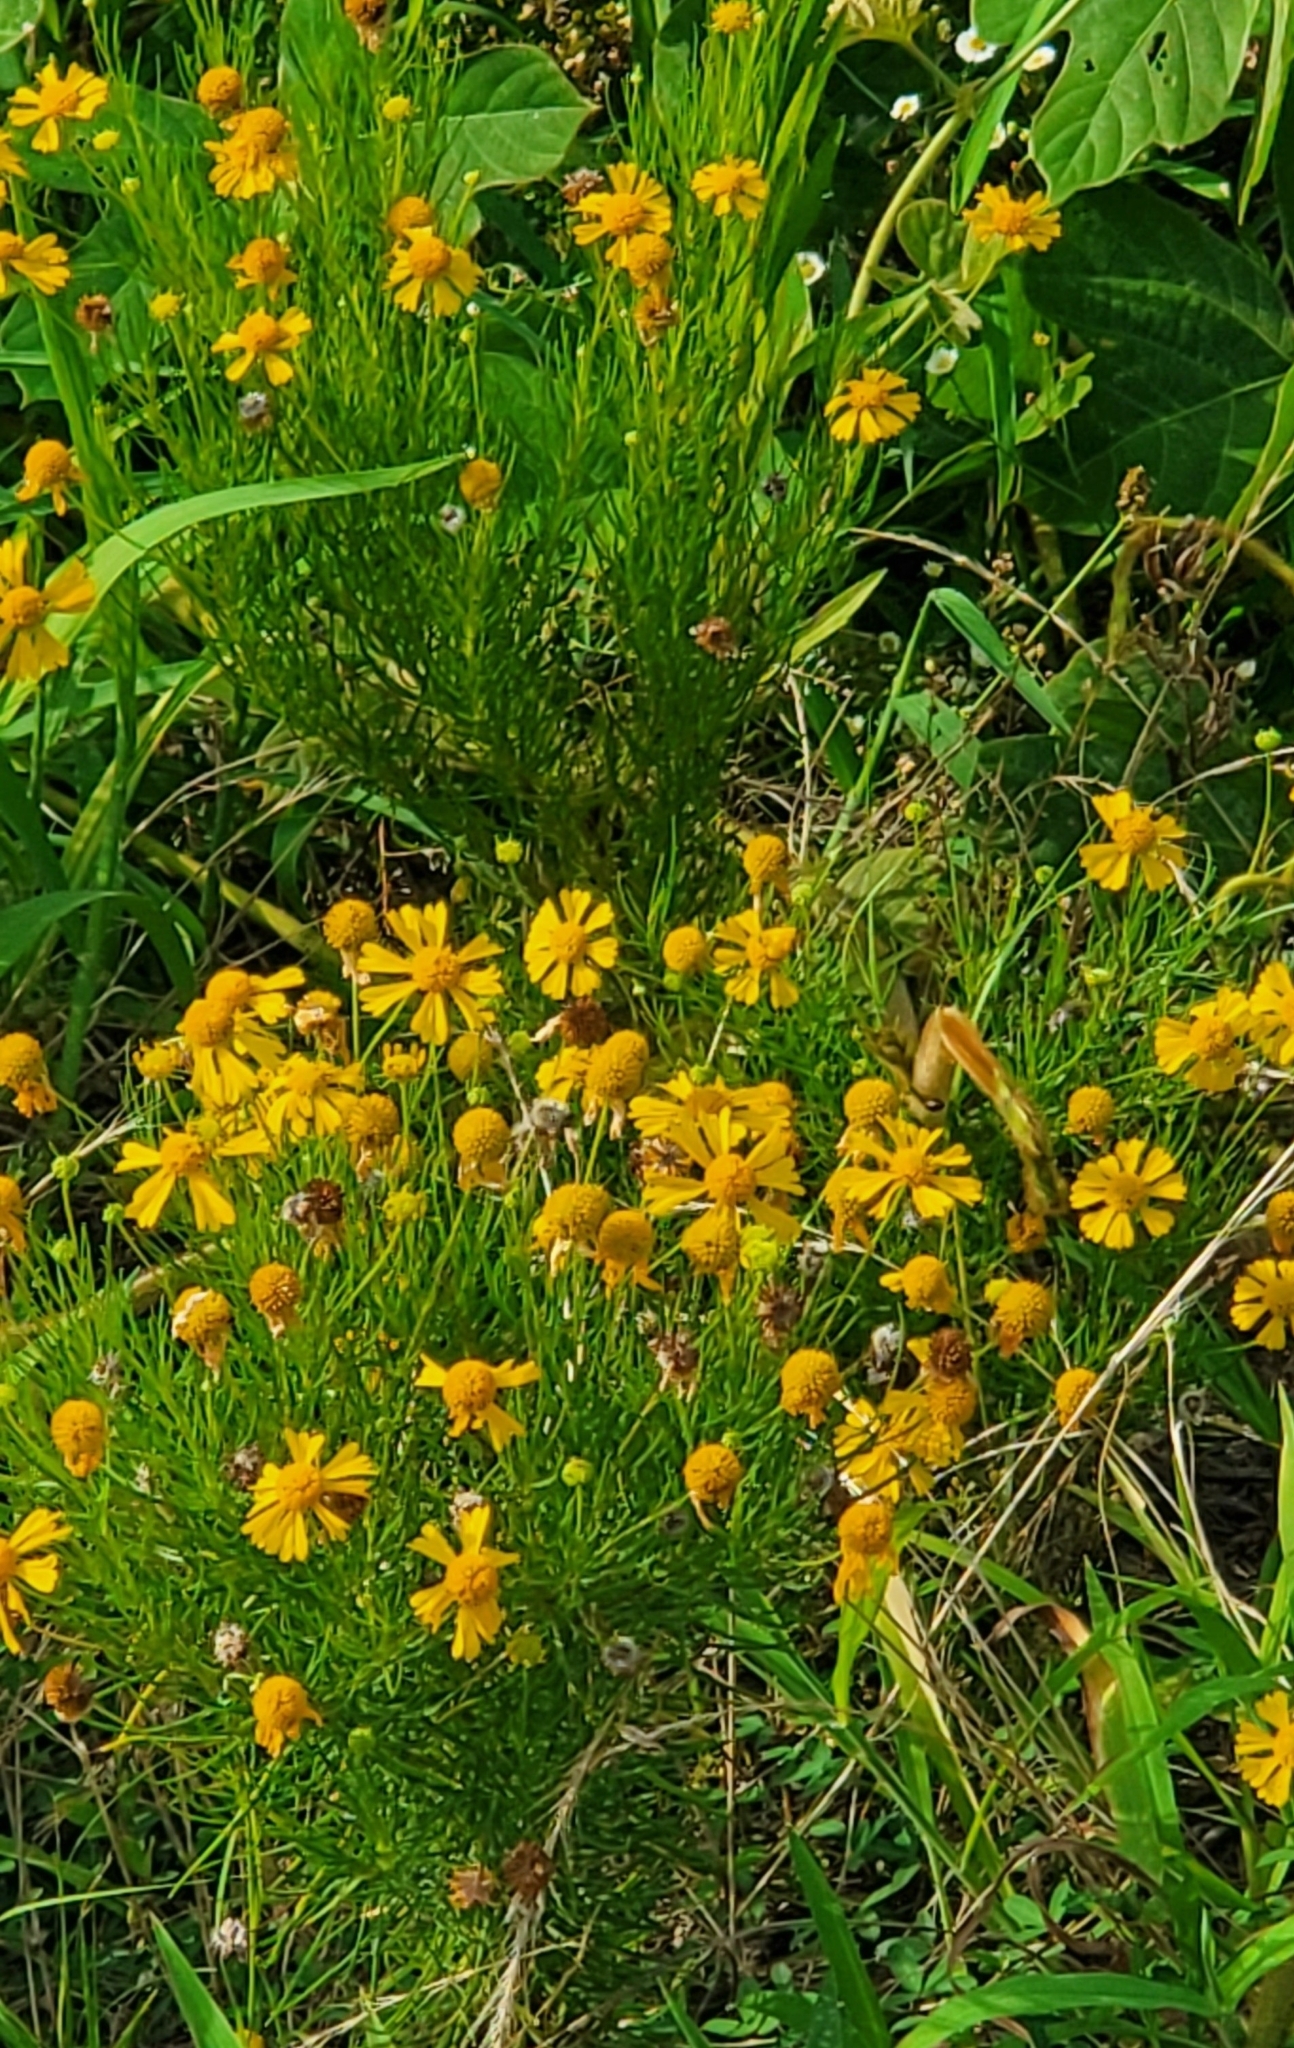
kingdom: Plantae
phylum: Tracheophyta
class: Magnoliopsida
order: Asterales
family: Asteraceae
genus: Helenium
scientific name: Helenium amarum
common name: Bitter sneezeweed
